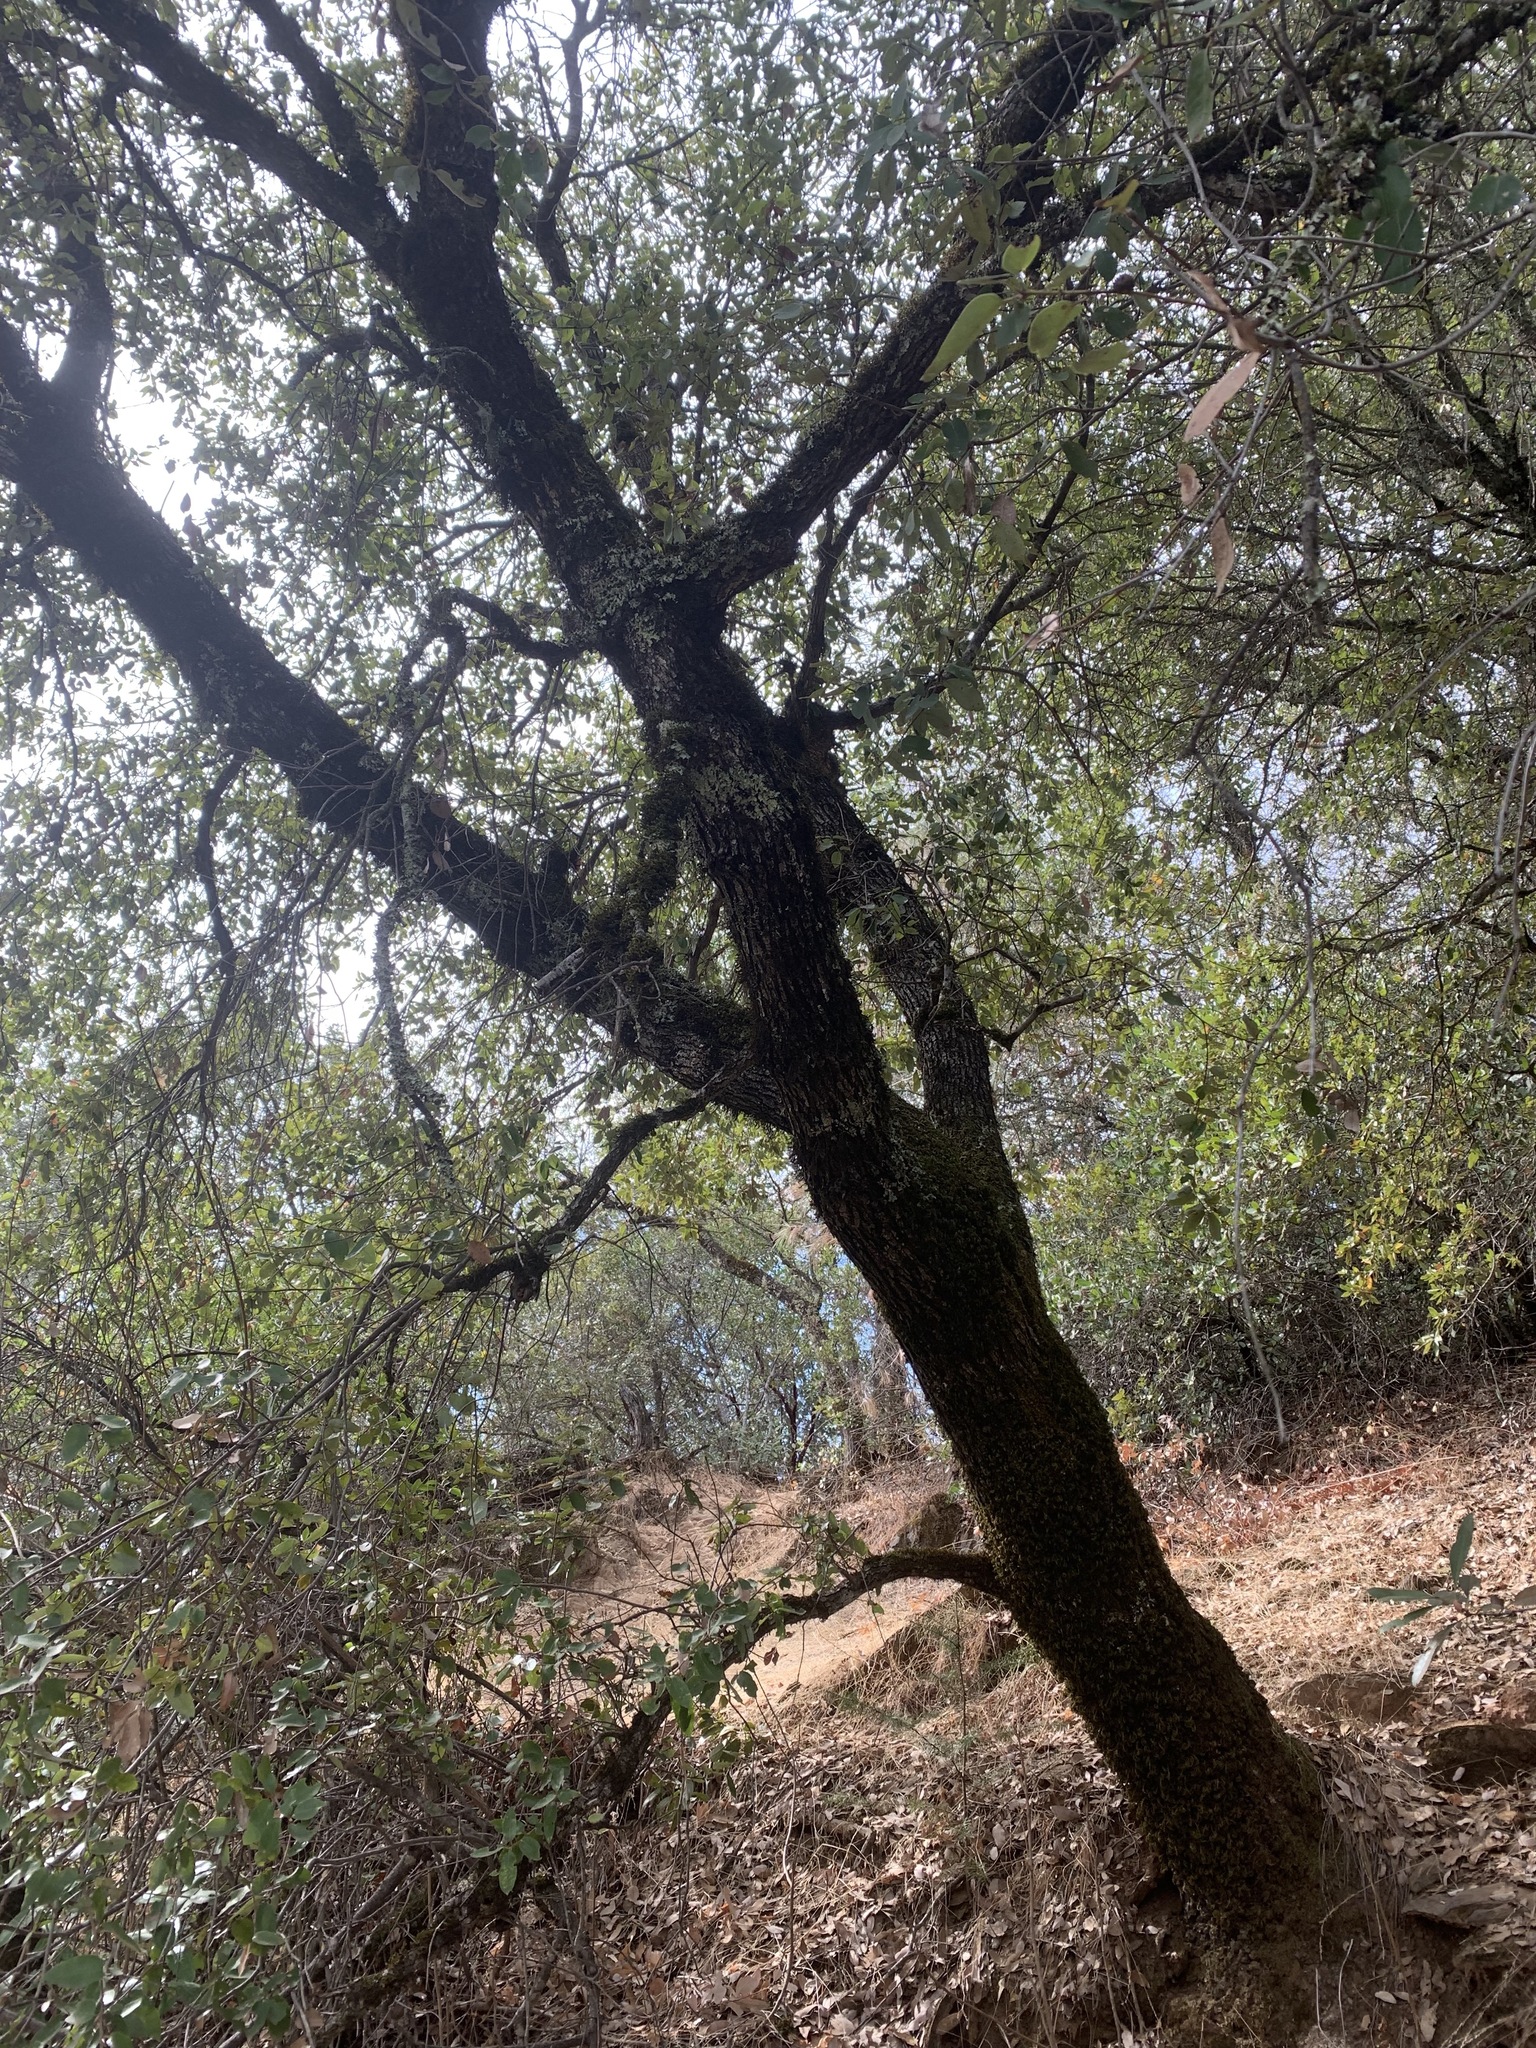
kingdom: Plantae
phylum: Tracheophyta
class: Magnoliopsida
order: Fagales
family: Fagaceae
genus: Quercus
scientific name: Quercus chrysolepis
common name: Canyon live oak
